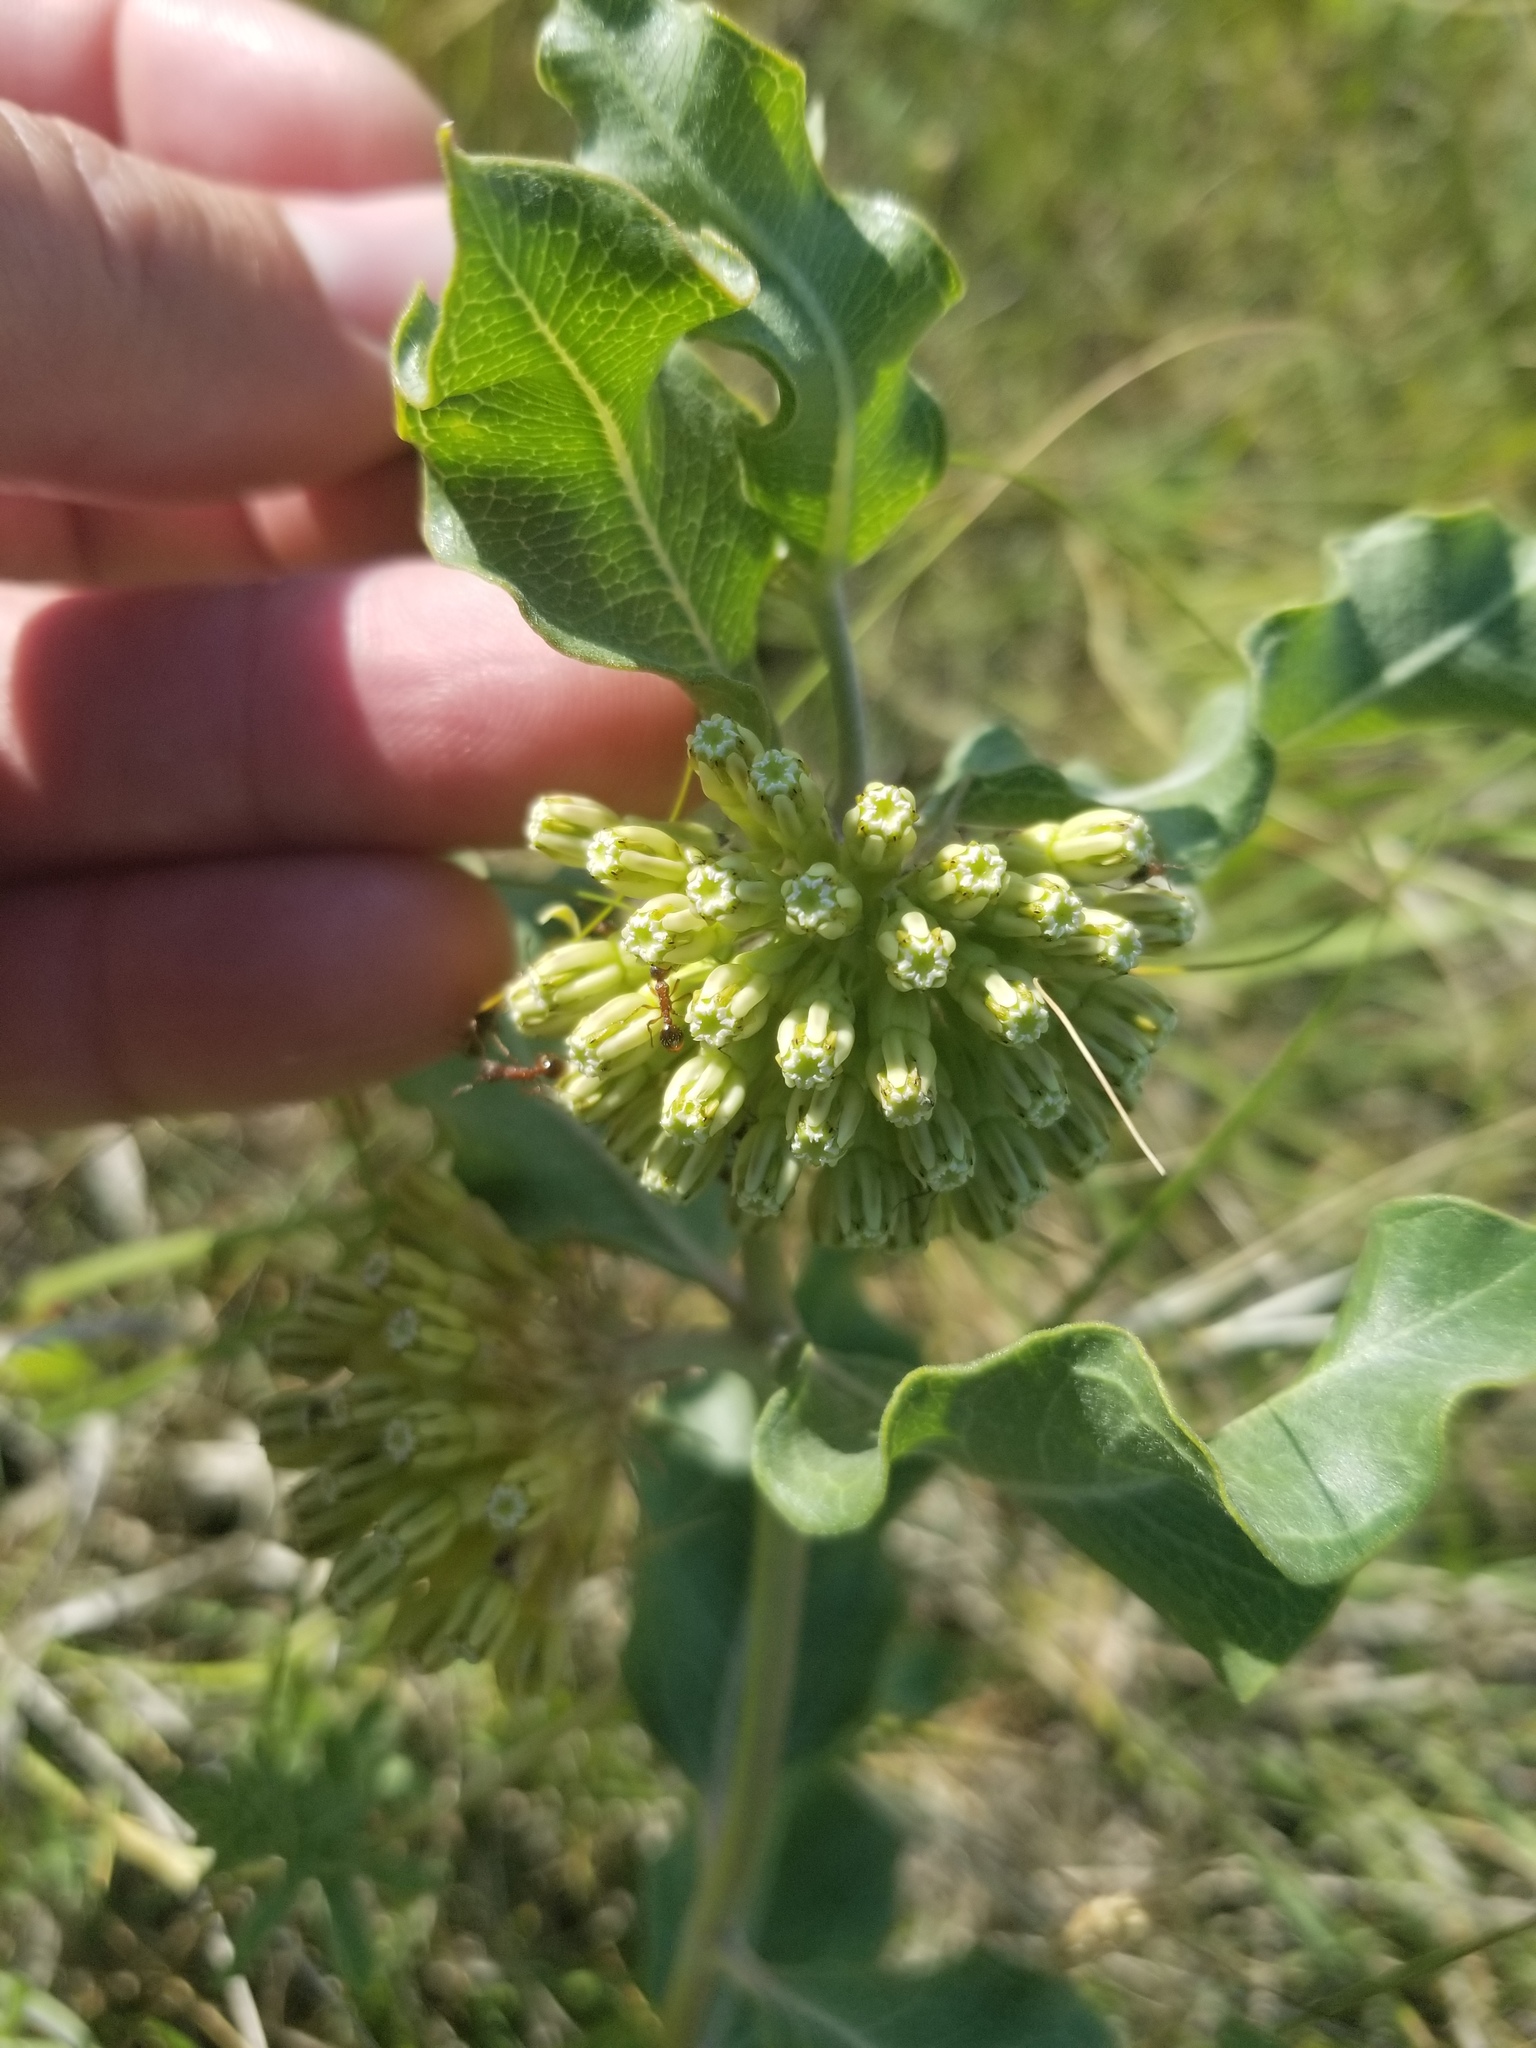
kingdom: Plantae
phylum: Tracheophyta
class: Magnoliopsida
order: Gentianales
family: Apocynaceae
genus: Asclepias
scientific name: Asclepias viridiflora
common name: Green comet milkweed
